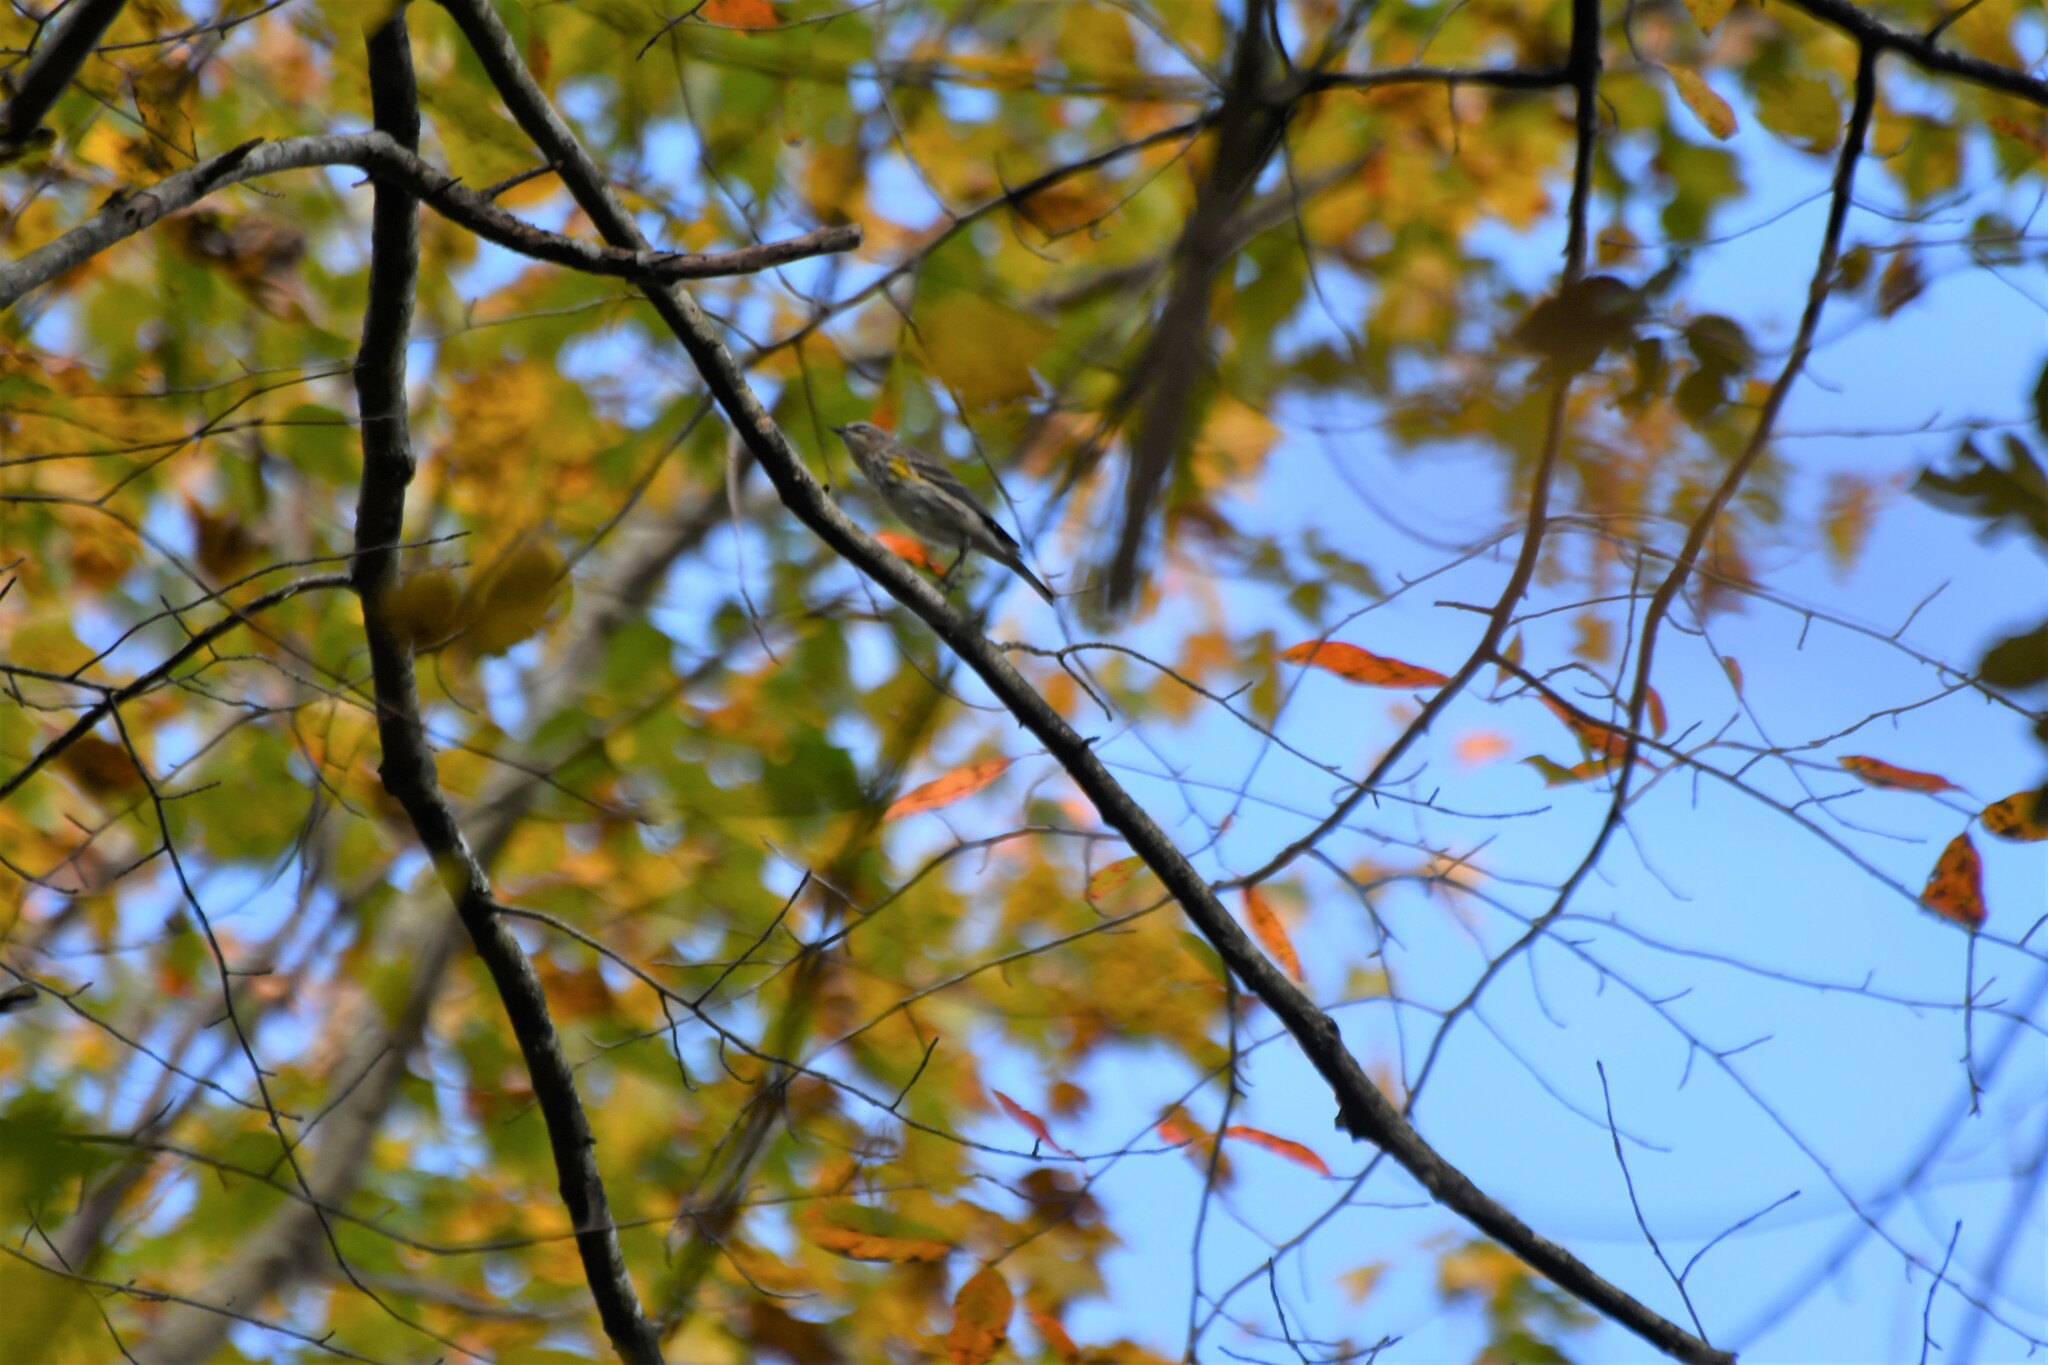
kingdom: Animalia
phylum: Chordata
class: Aves
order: Passeriformes
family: Parulidae
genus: Setophaga
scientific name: Setophaga coronata
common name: Myrtle warbler
